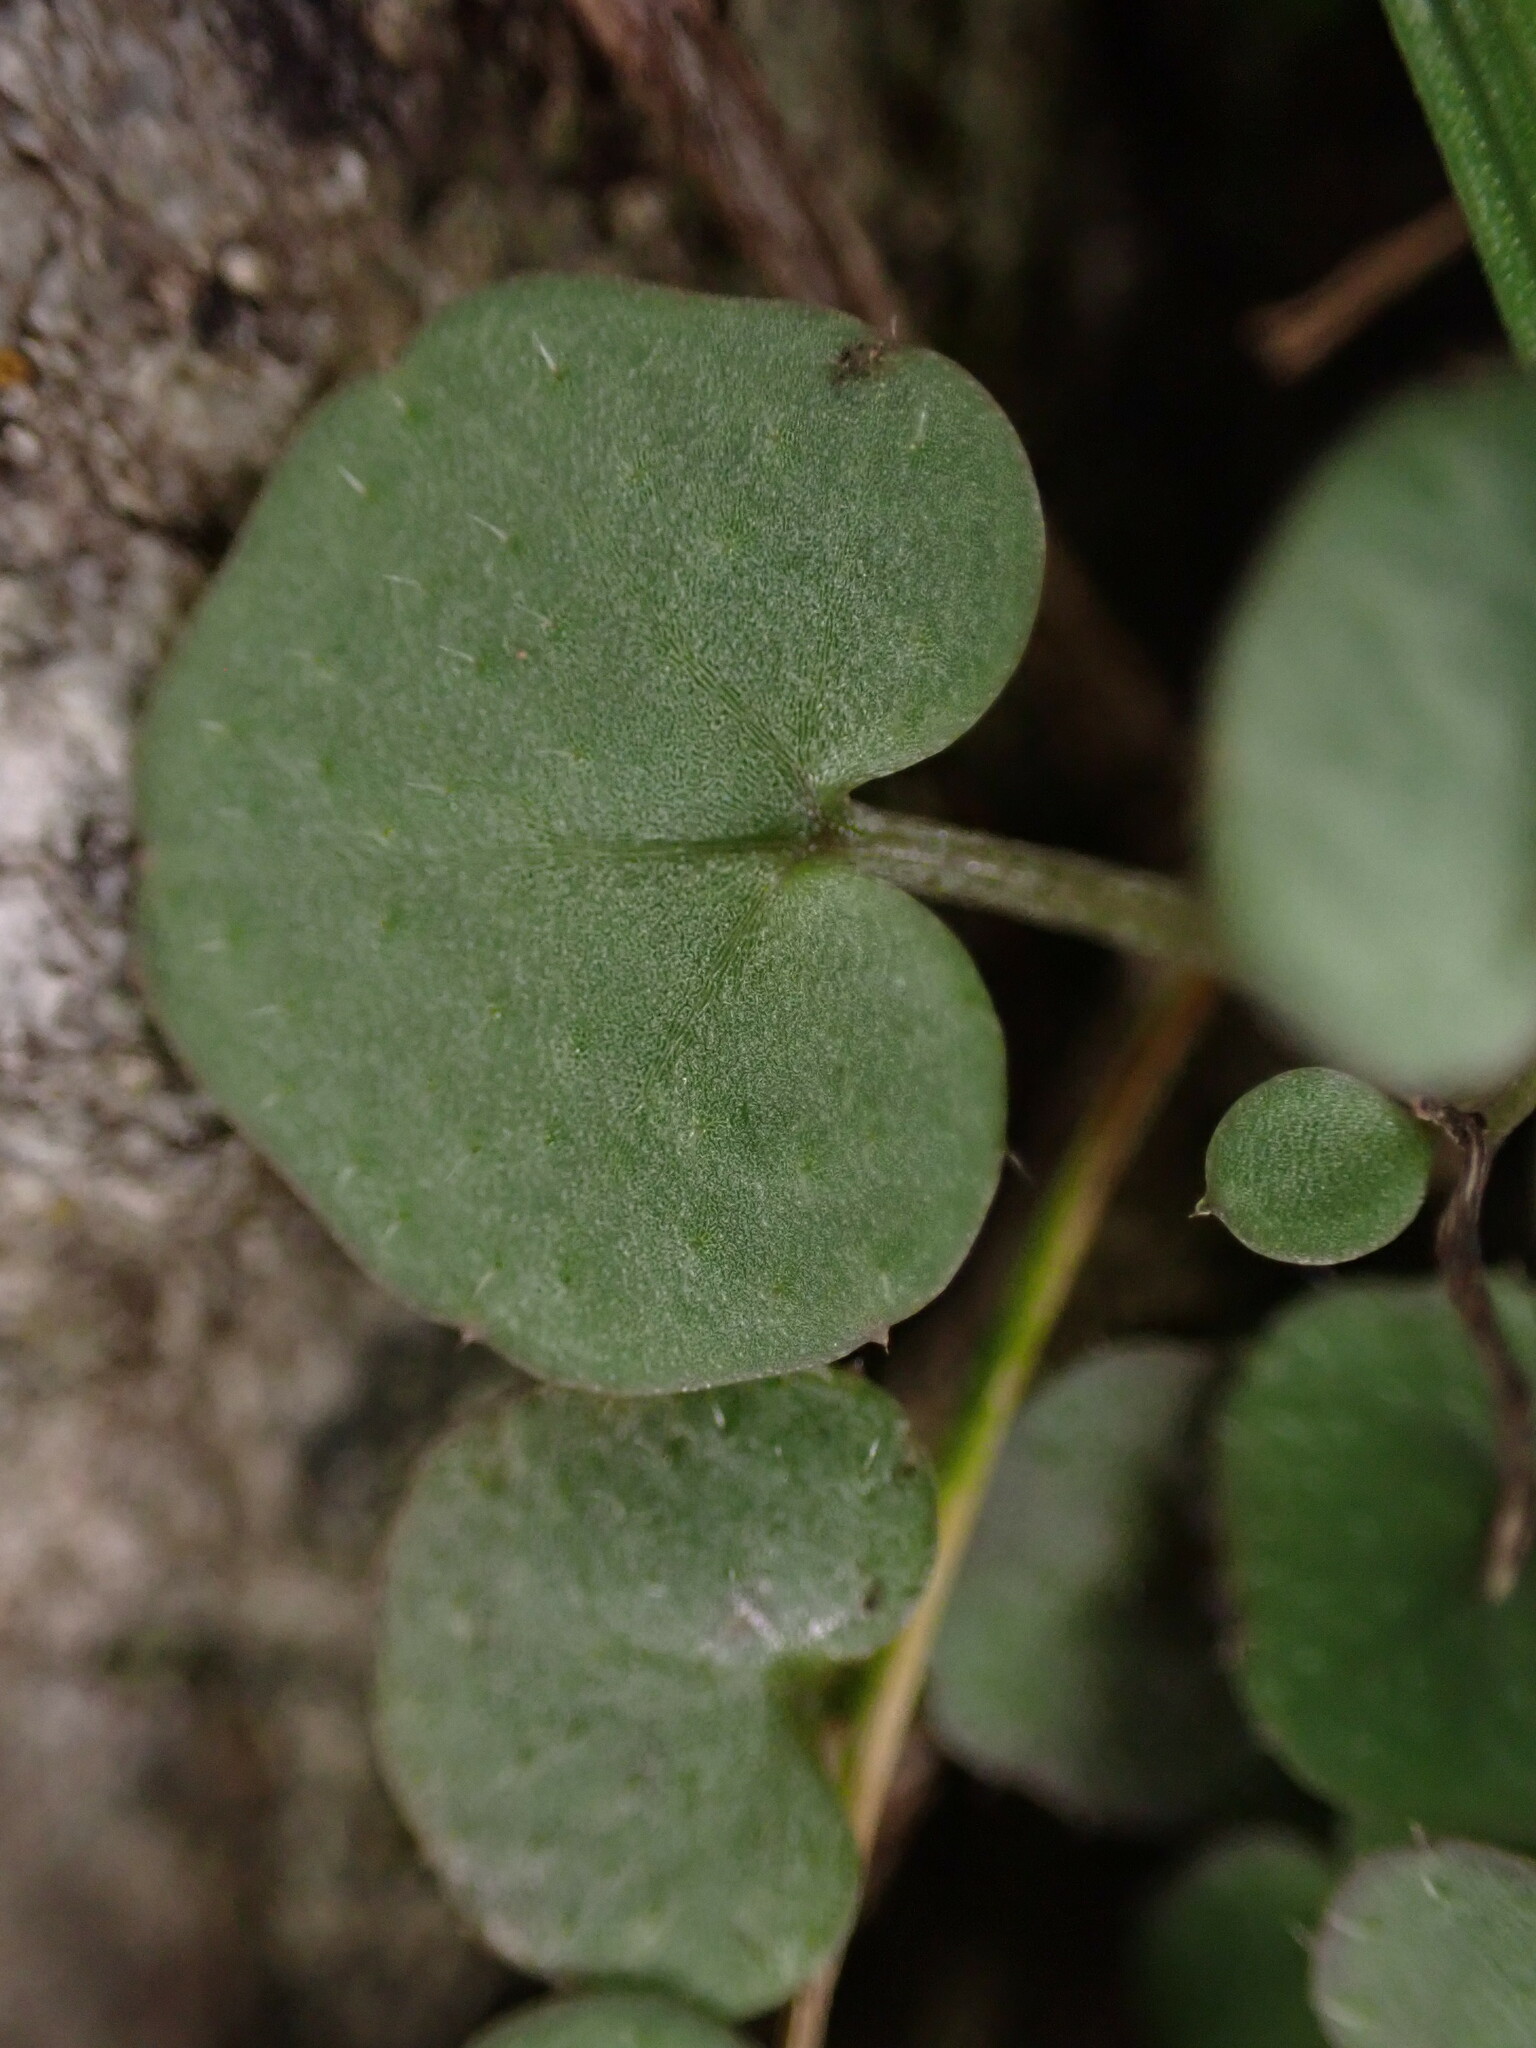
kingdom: Plantae
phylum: Tracheophyta
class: Magnoliopsida
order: Brassicales
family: Brassicaceae
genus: Cardamine
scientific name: Cardamine hirsuta
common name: Hairy bittercress
